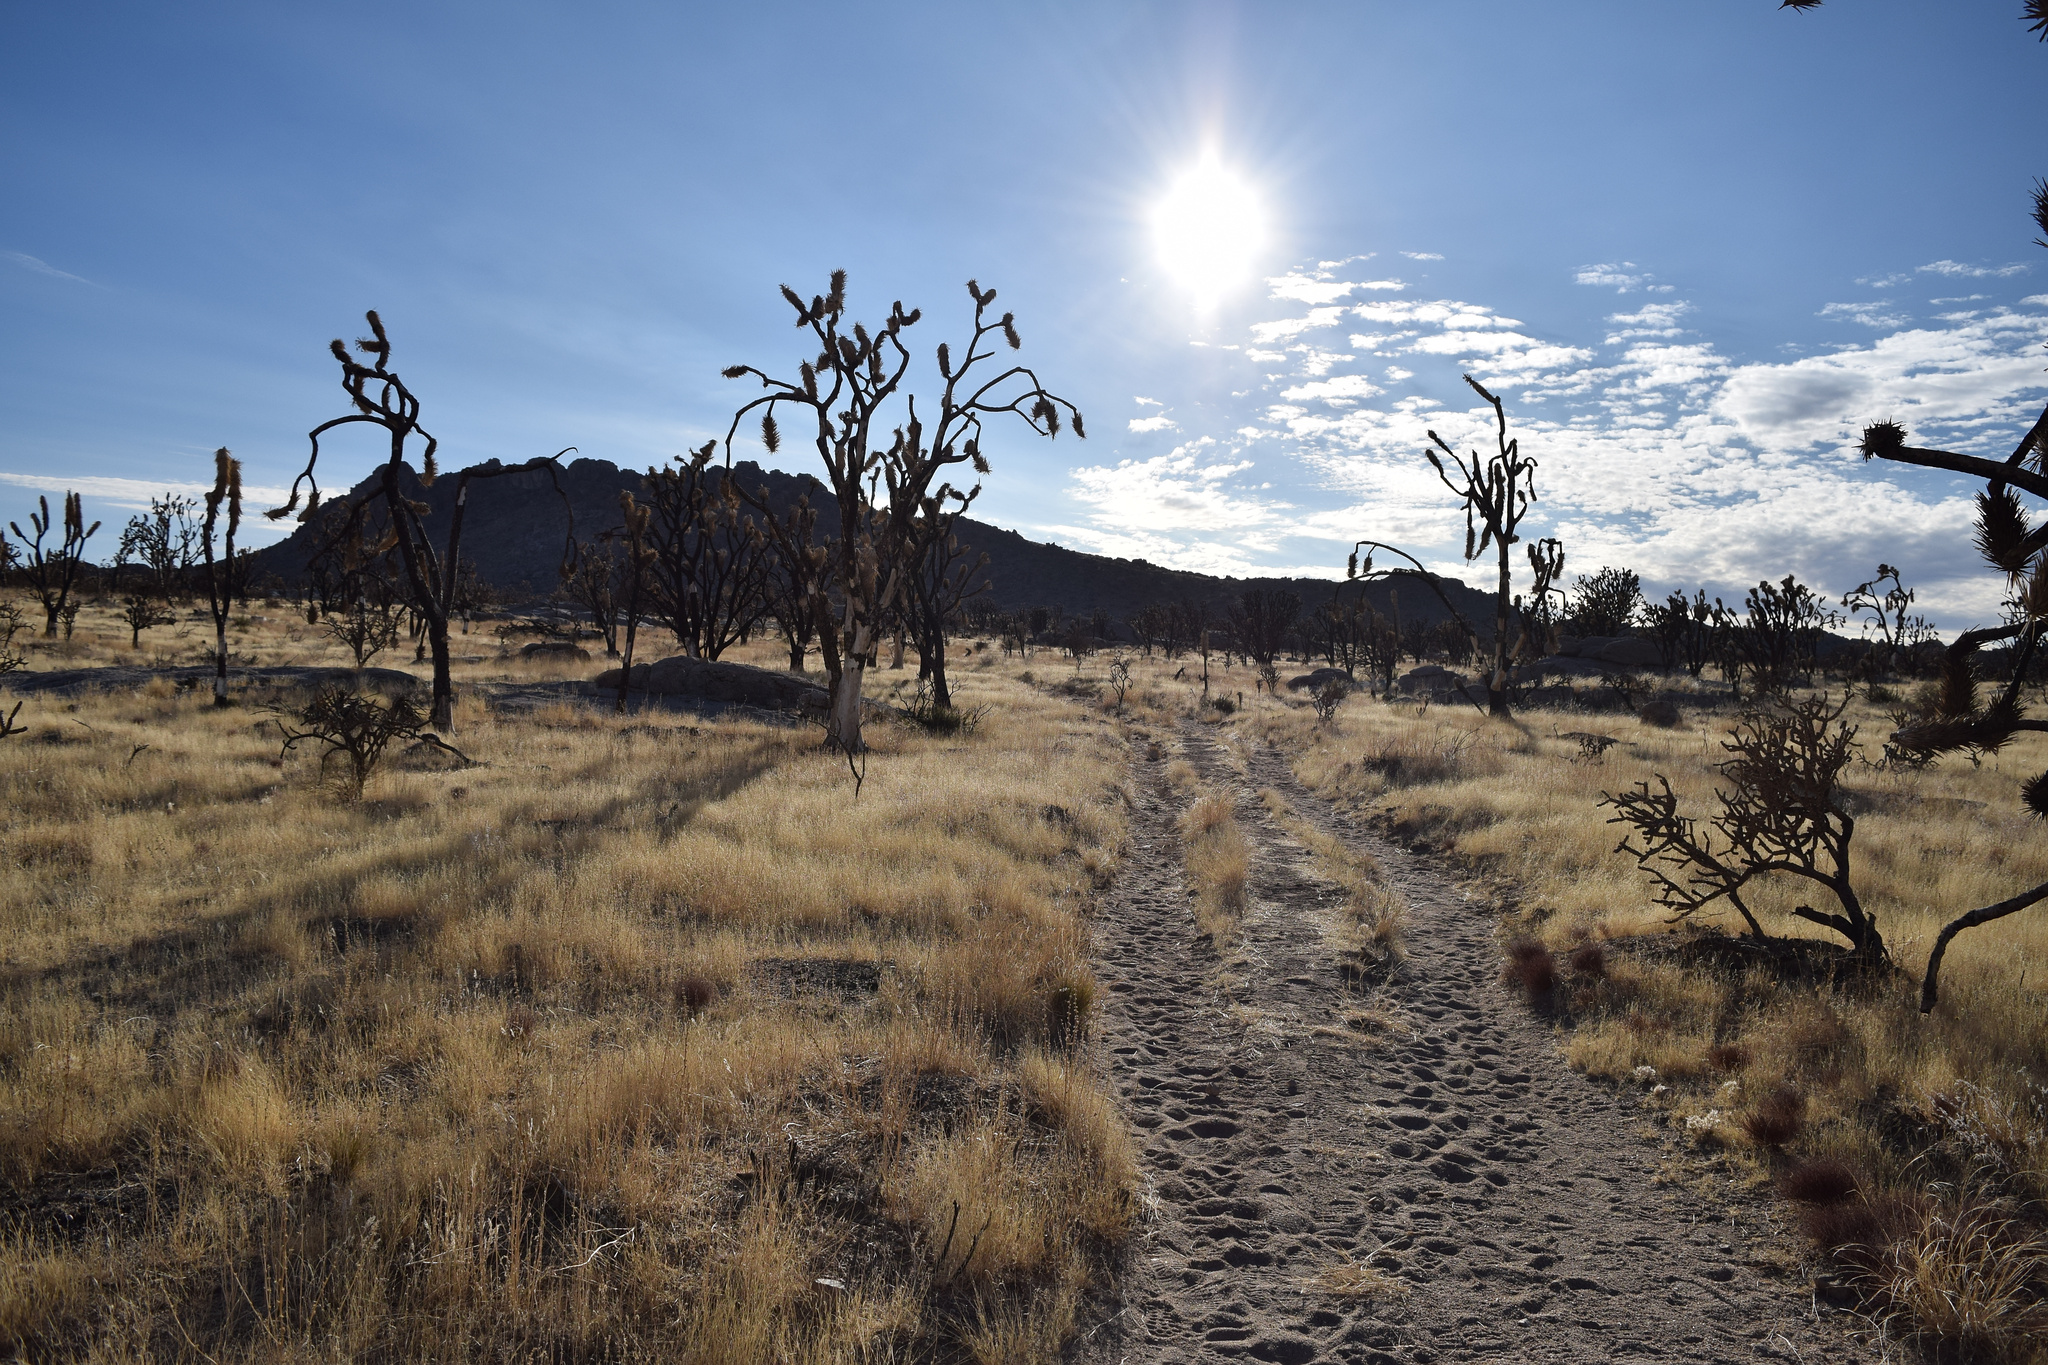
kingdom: Plantae
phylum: Tracheophyta
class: Liliopsida
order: Asparagales
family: Asparagaceae
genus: Yucca
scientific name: Yucca brevifolia
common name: Joshua tree
